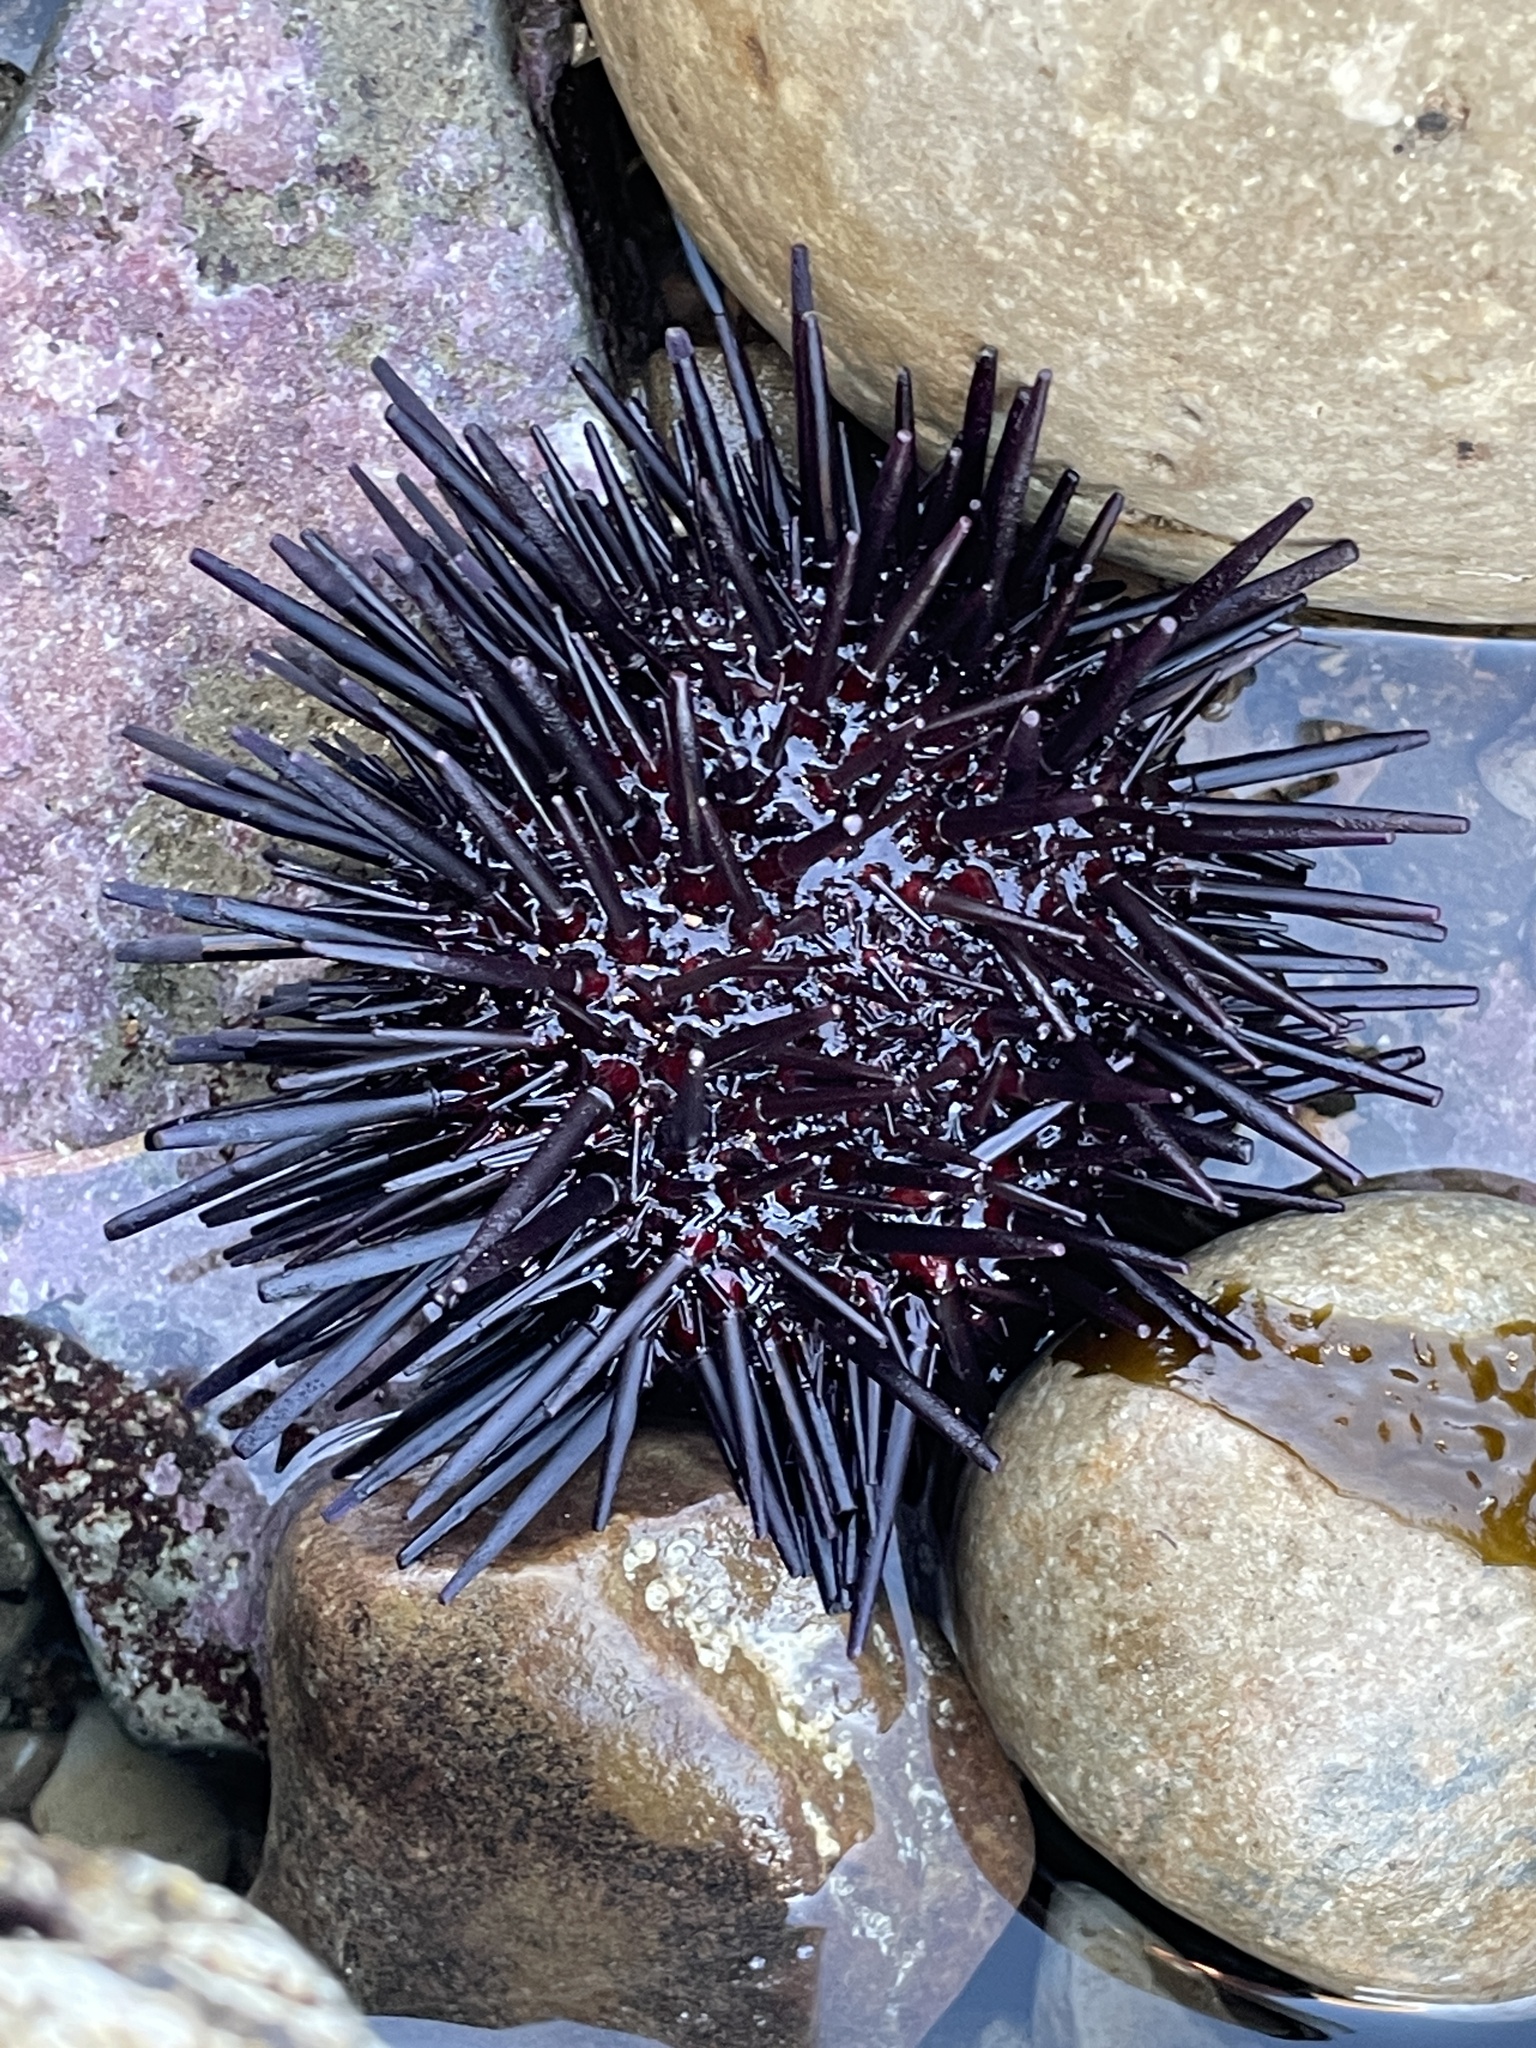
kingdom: Animalia
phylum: Echinodermata
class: Echinoidea
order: Camarodonta
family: Strongylocentrotidae
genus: Mesocentrotus
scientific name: Mesocentrotus franciscanus
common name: Red sea urchin
